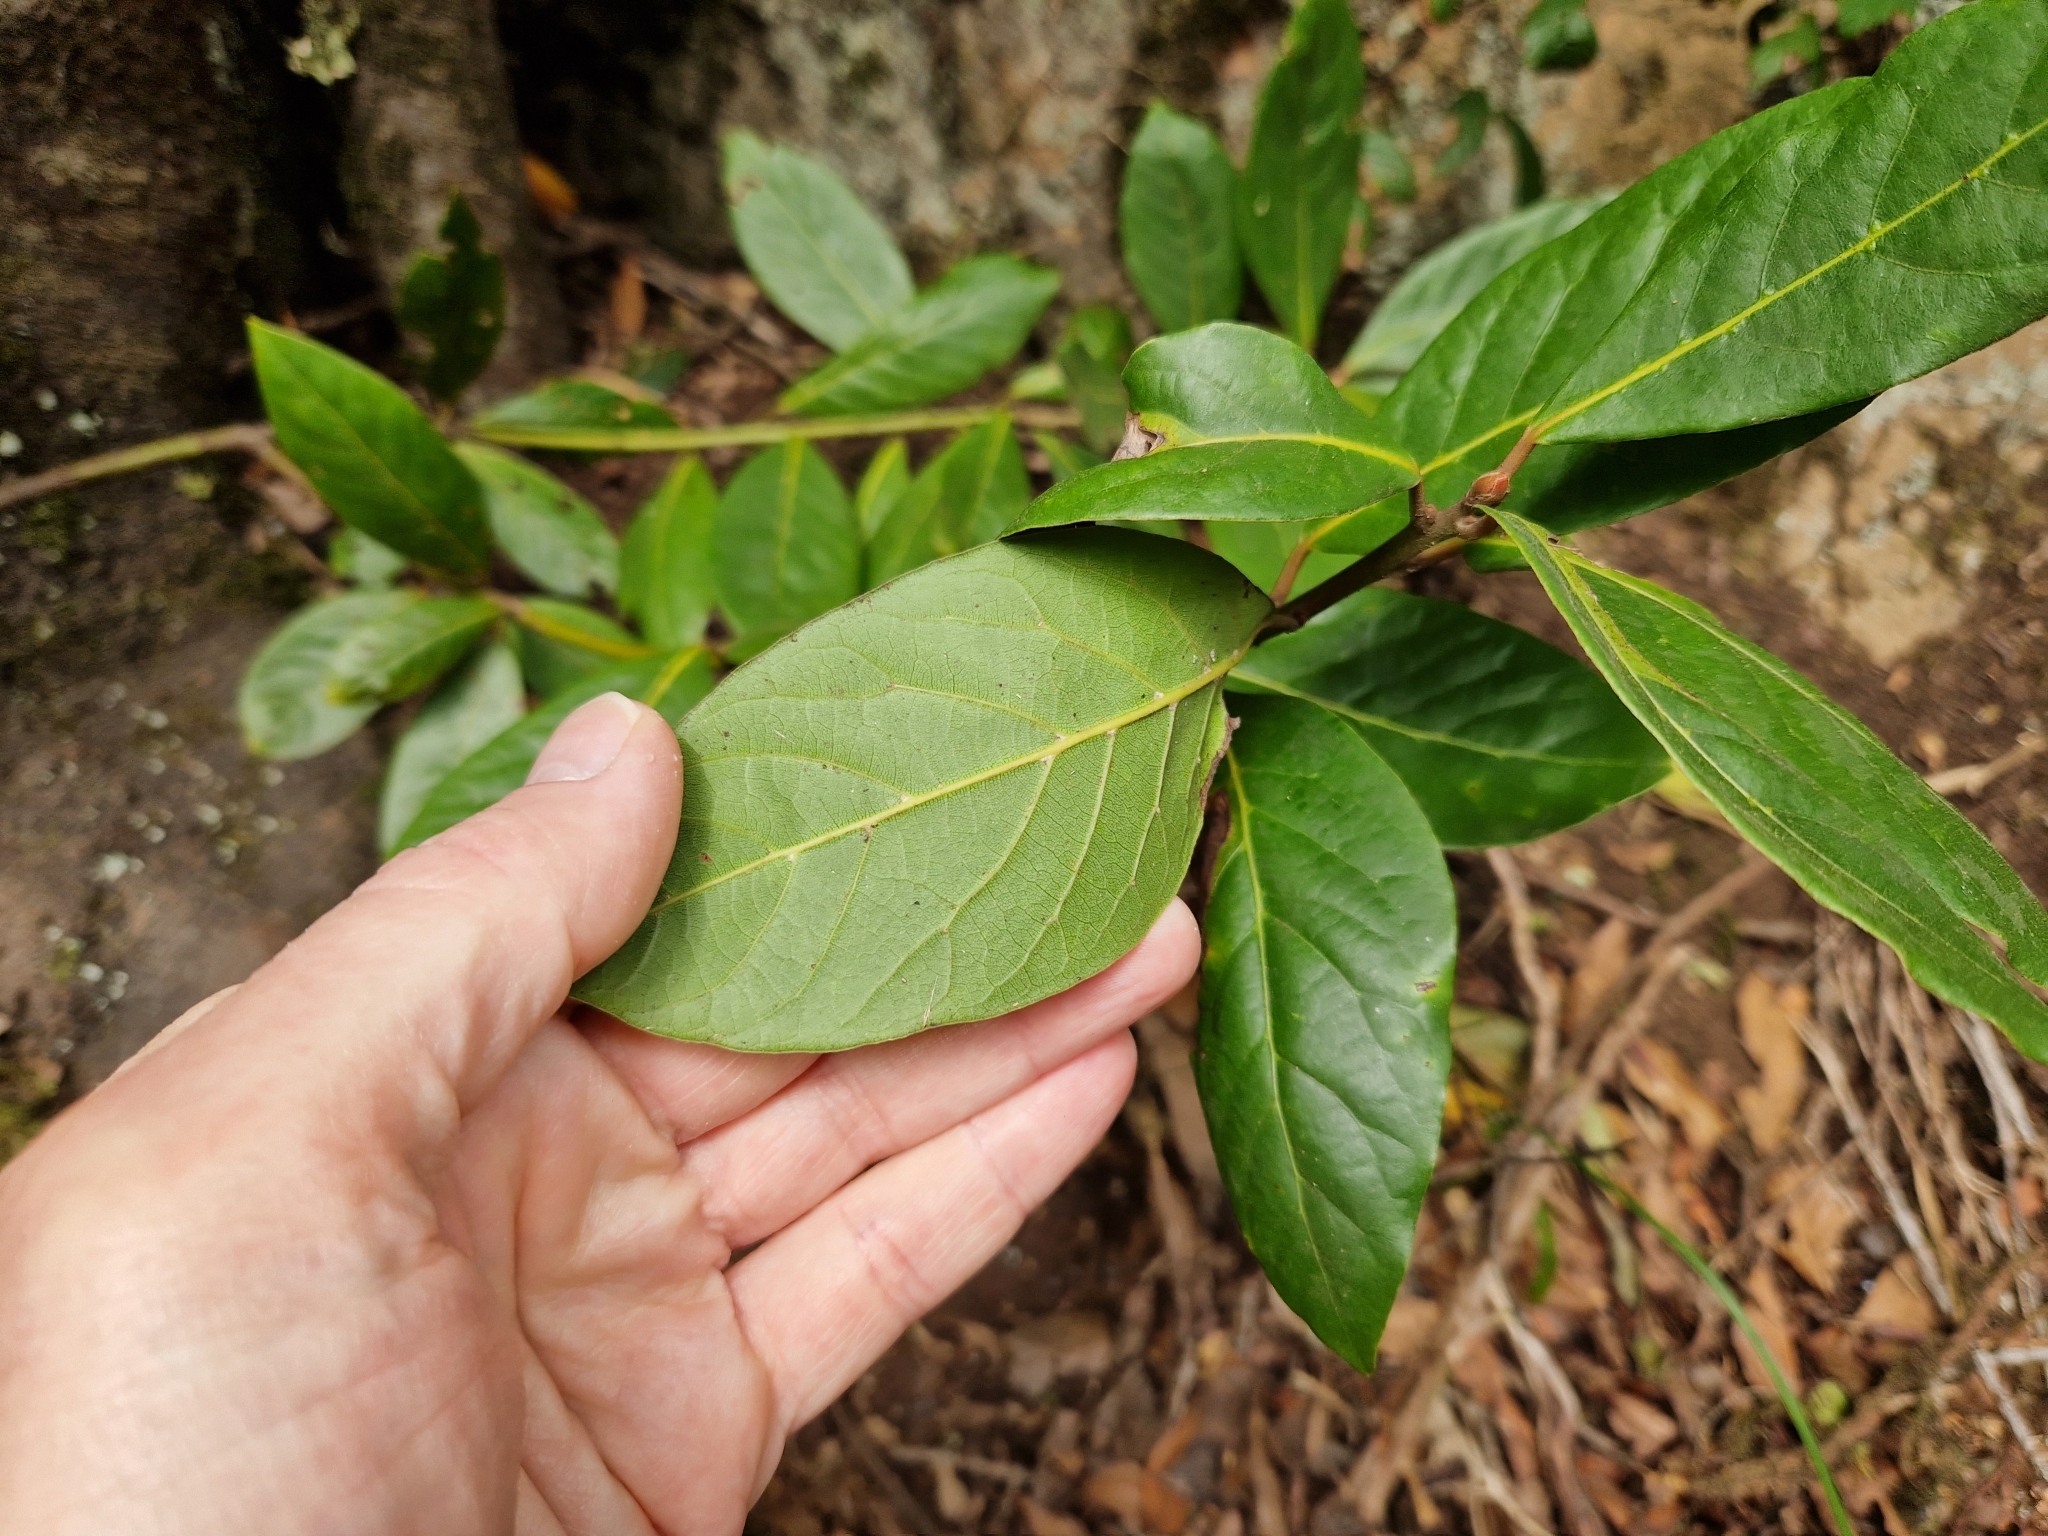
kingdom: Plantae
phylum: Tracheophyta
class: Magnoliopsida
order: Laurales
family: Lauraceae
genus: Laurus
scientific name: Laurus novocanariensis
